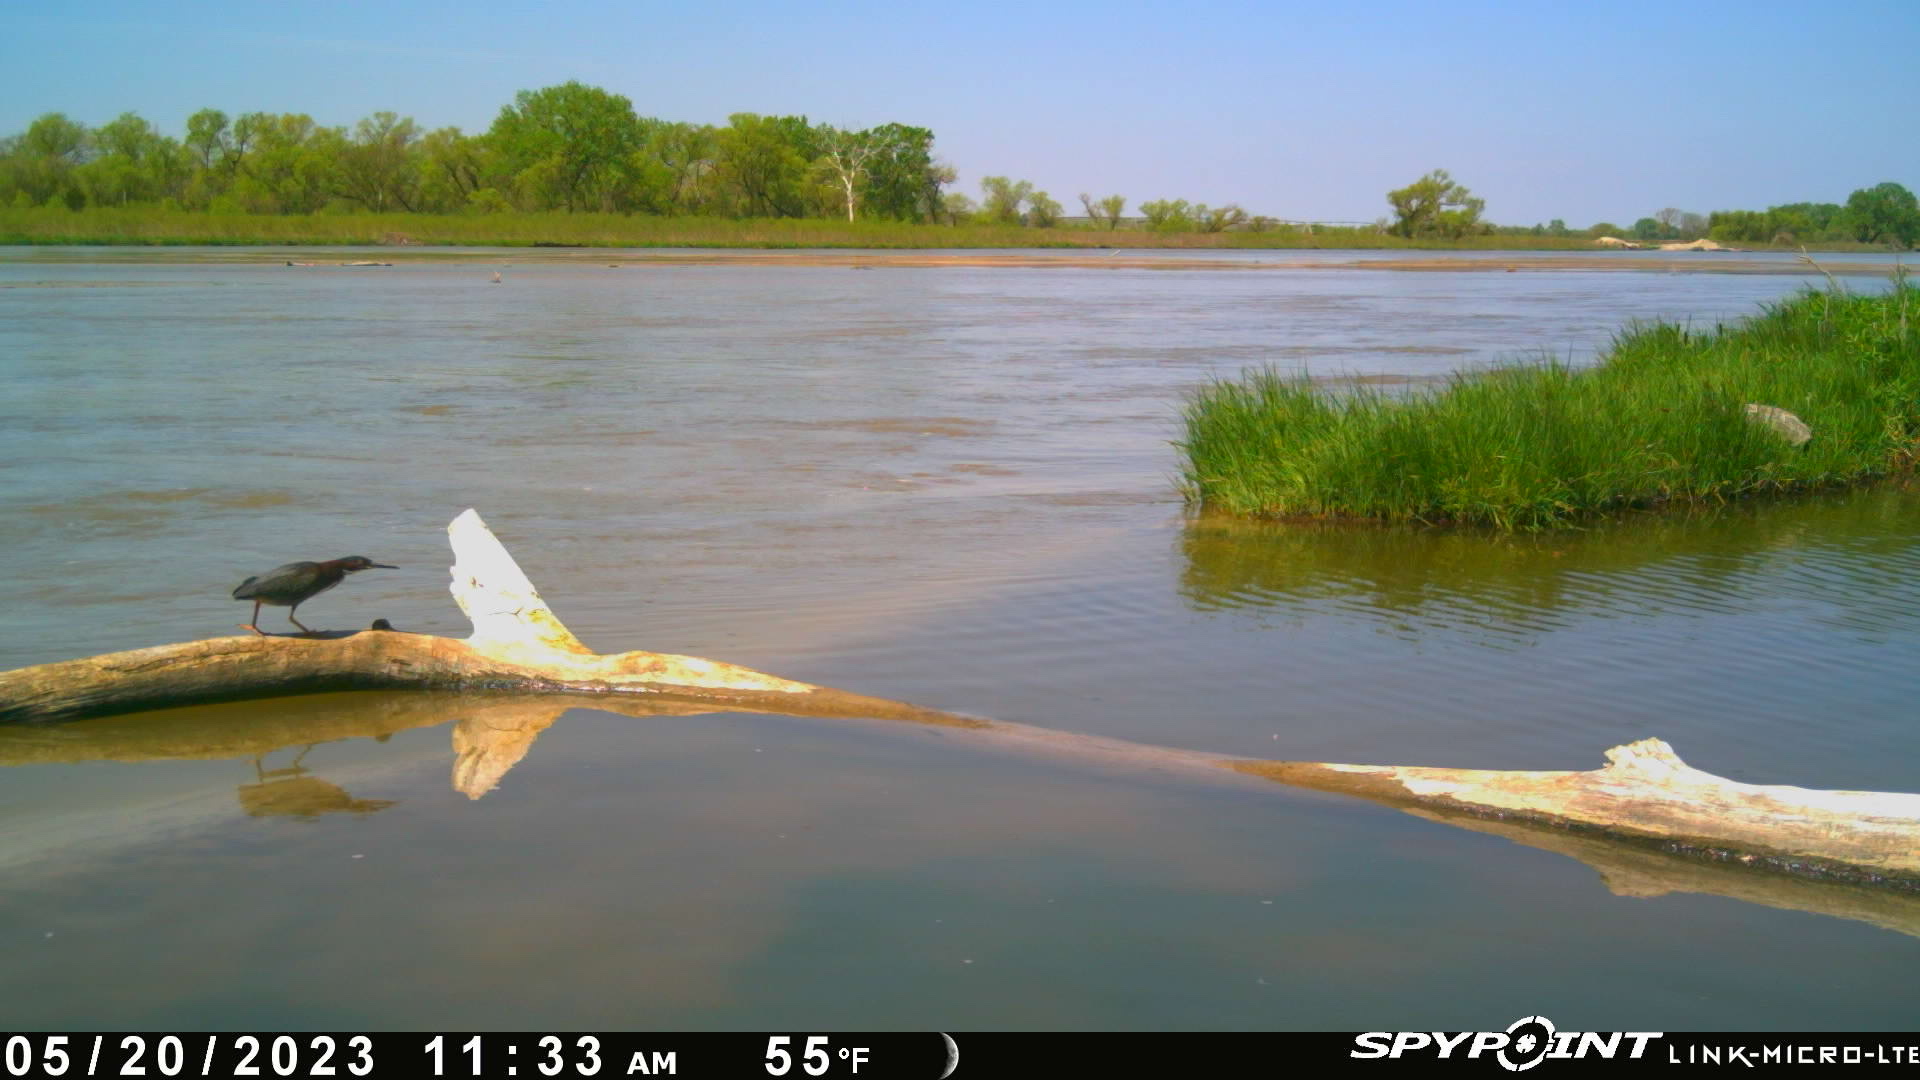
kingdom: Animalia
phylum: Chordata
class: Aves
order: Pelecaniformes
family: Ardeidae
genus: Butorides
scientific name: Butorides virescens
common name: Green heron
